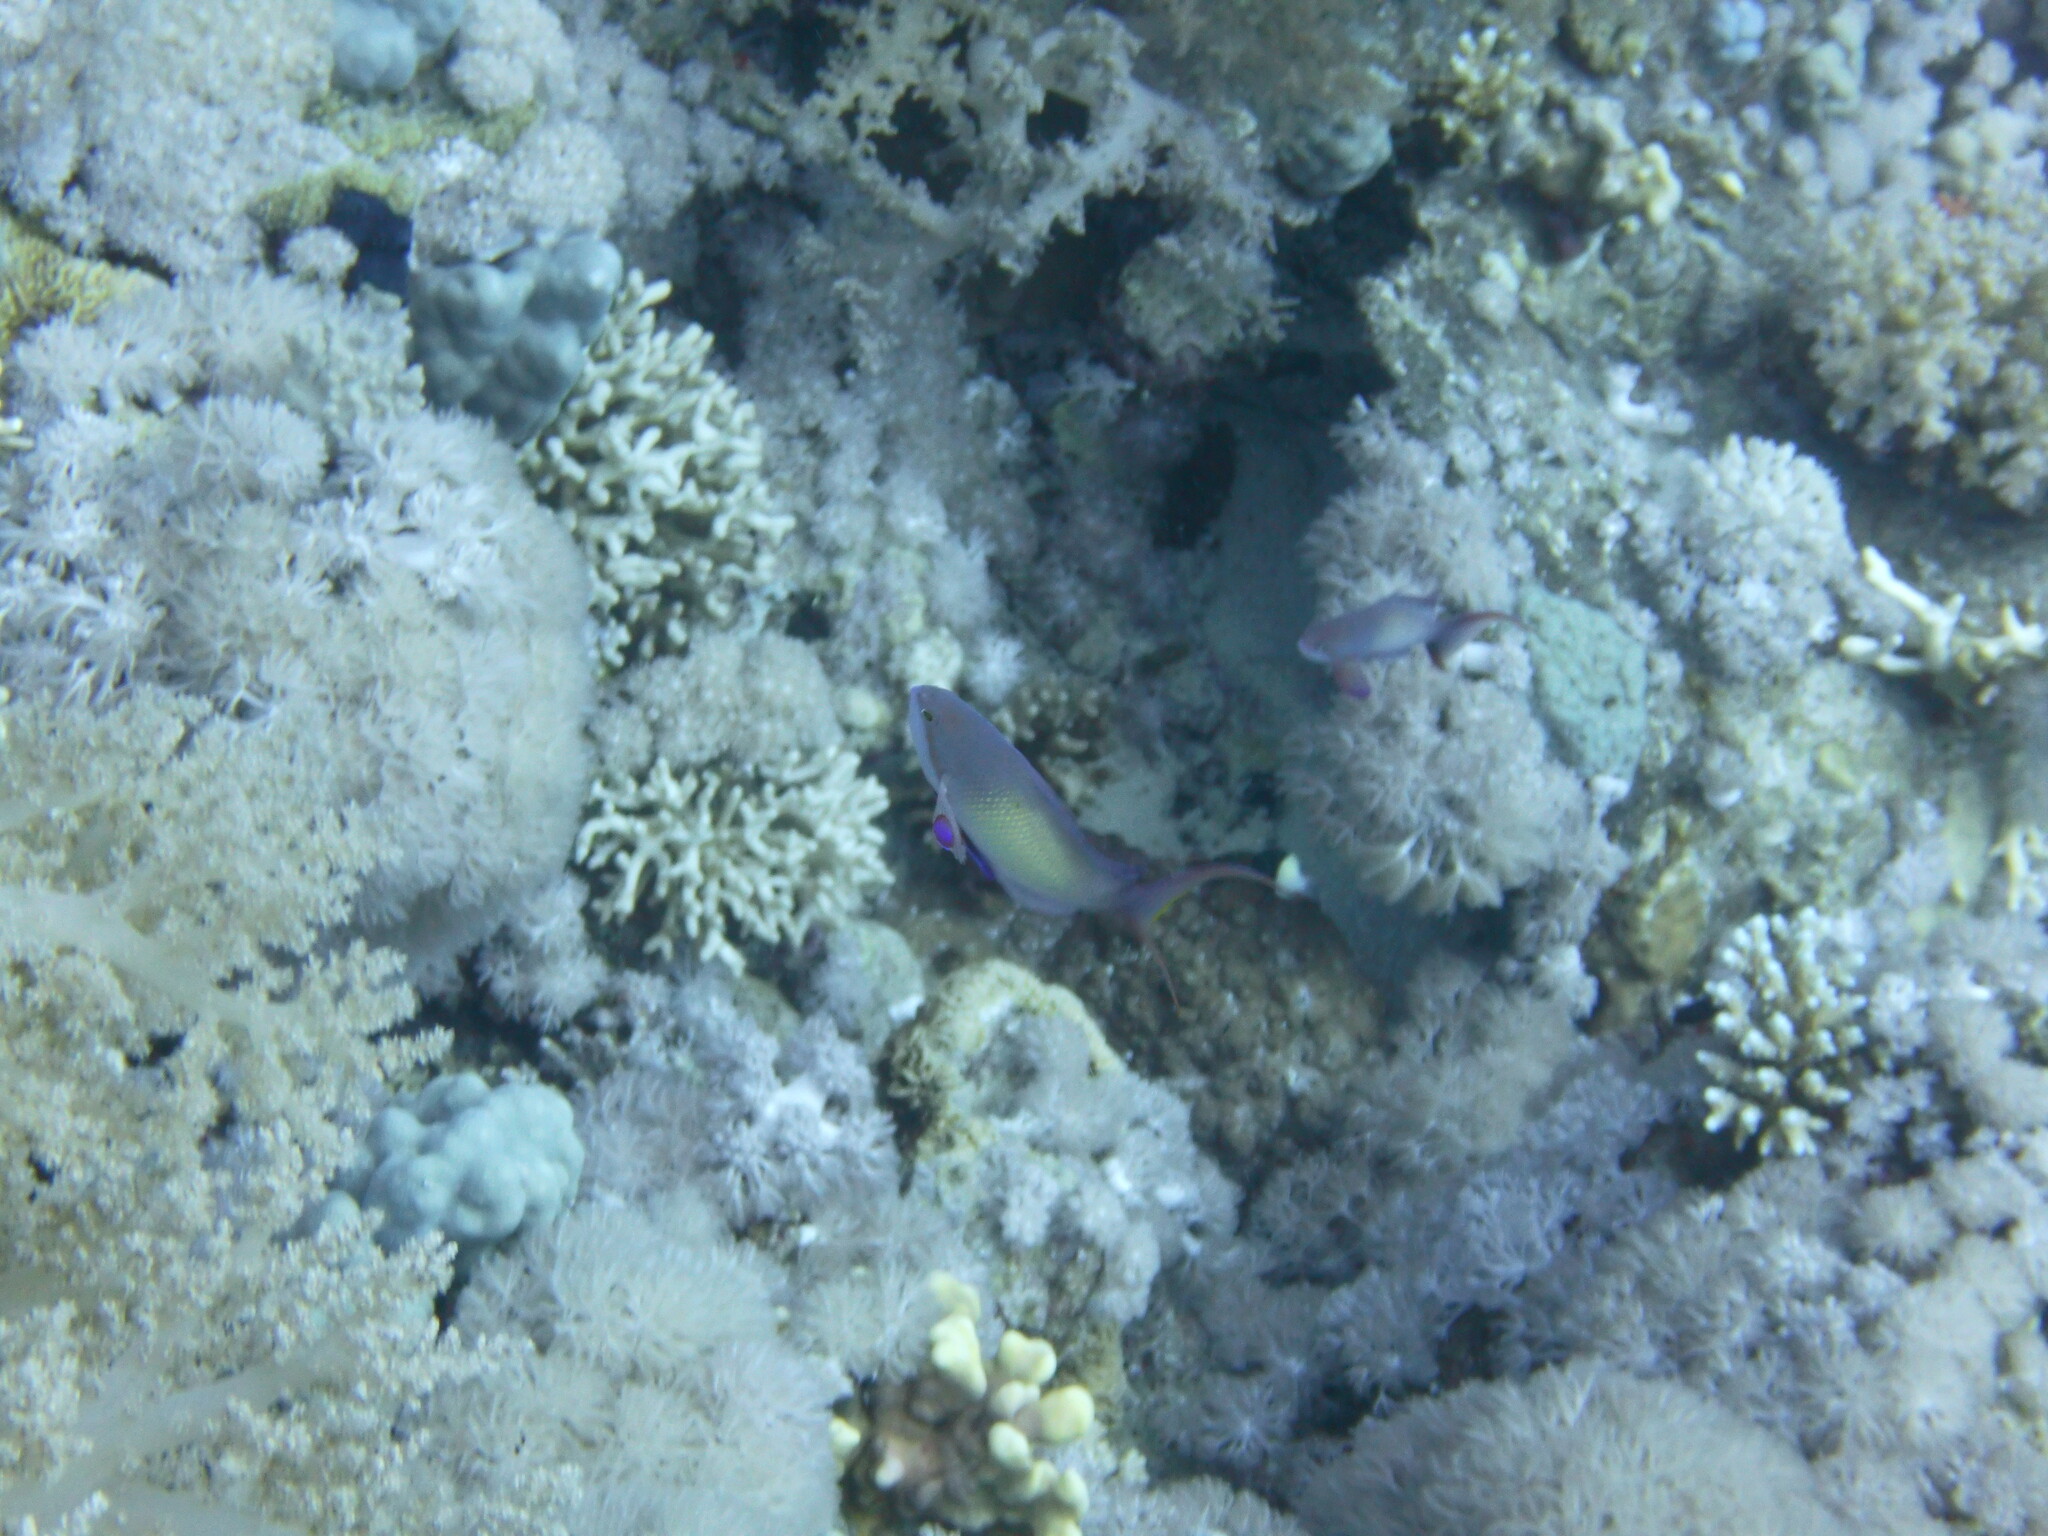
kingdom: Animalia
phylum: Chordata
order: Perciformes
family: Serranidae
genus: Pseudanthias
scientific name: Pseudanthias squamipinnis
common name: Scalefin anthias
